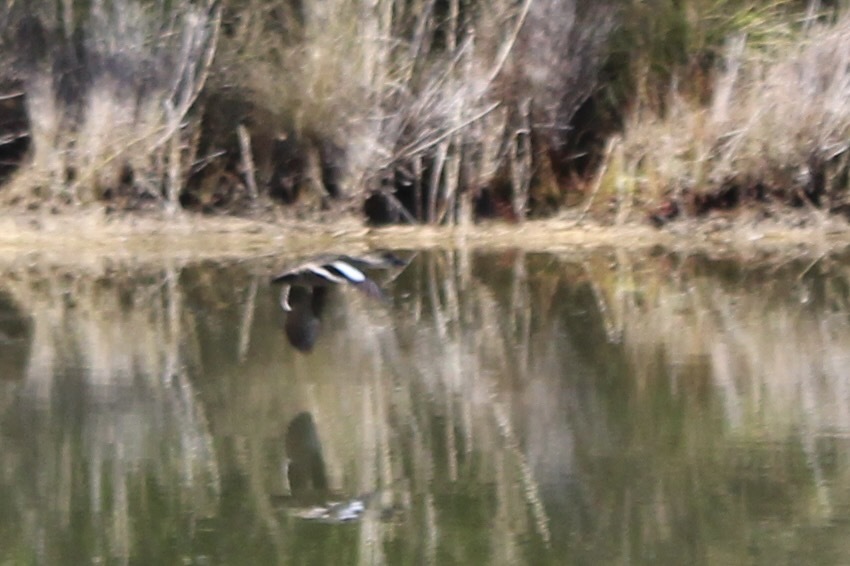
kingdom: Animalia
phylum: Chordata
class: Aves
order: Anseriformes
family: Anatidae
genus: Anas
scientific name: Anas gracilis
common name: Grey teal
